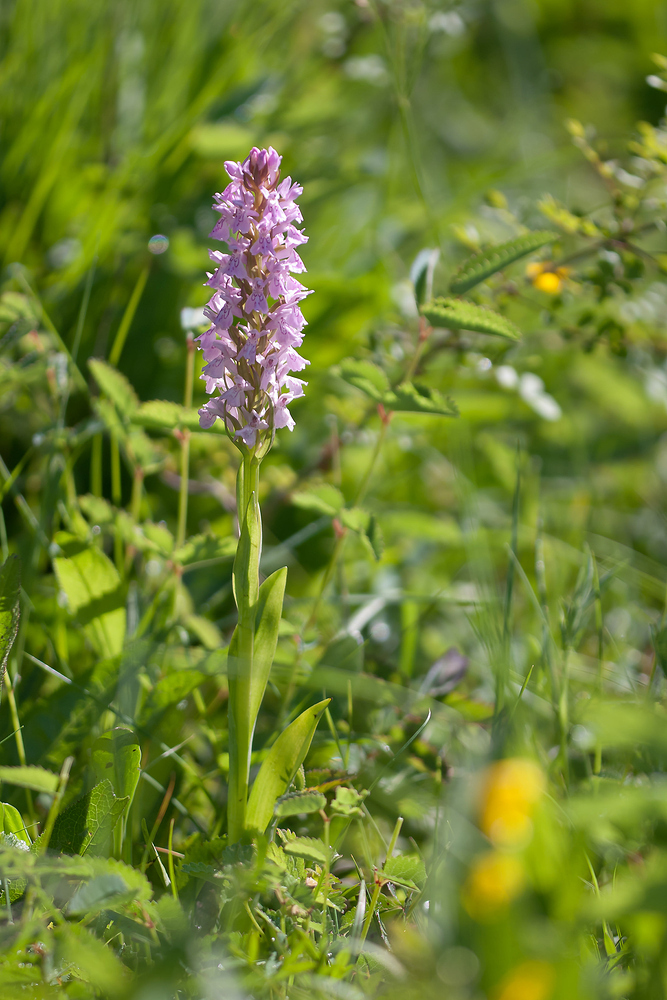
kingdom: Plantae
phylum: Tracheophyta
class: Liliopsida
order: Asparagales
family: Orchidaceae
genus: Dactylorhiza
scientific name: Dactylorhiza elata
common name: Stately dactylorhiza
